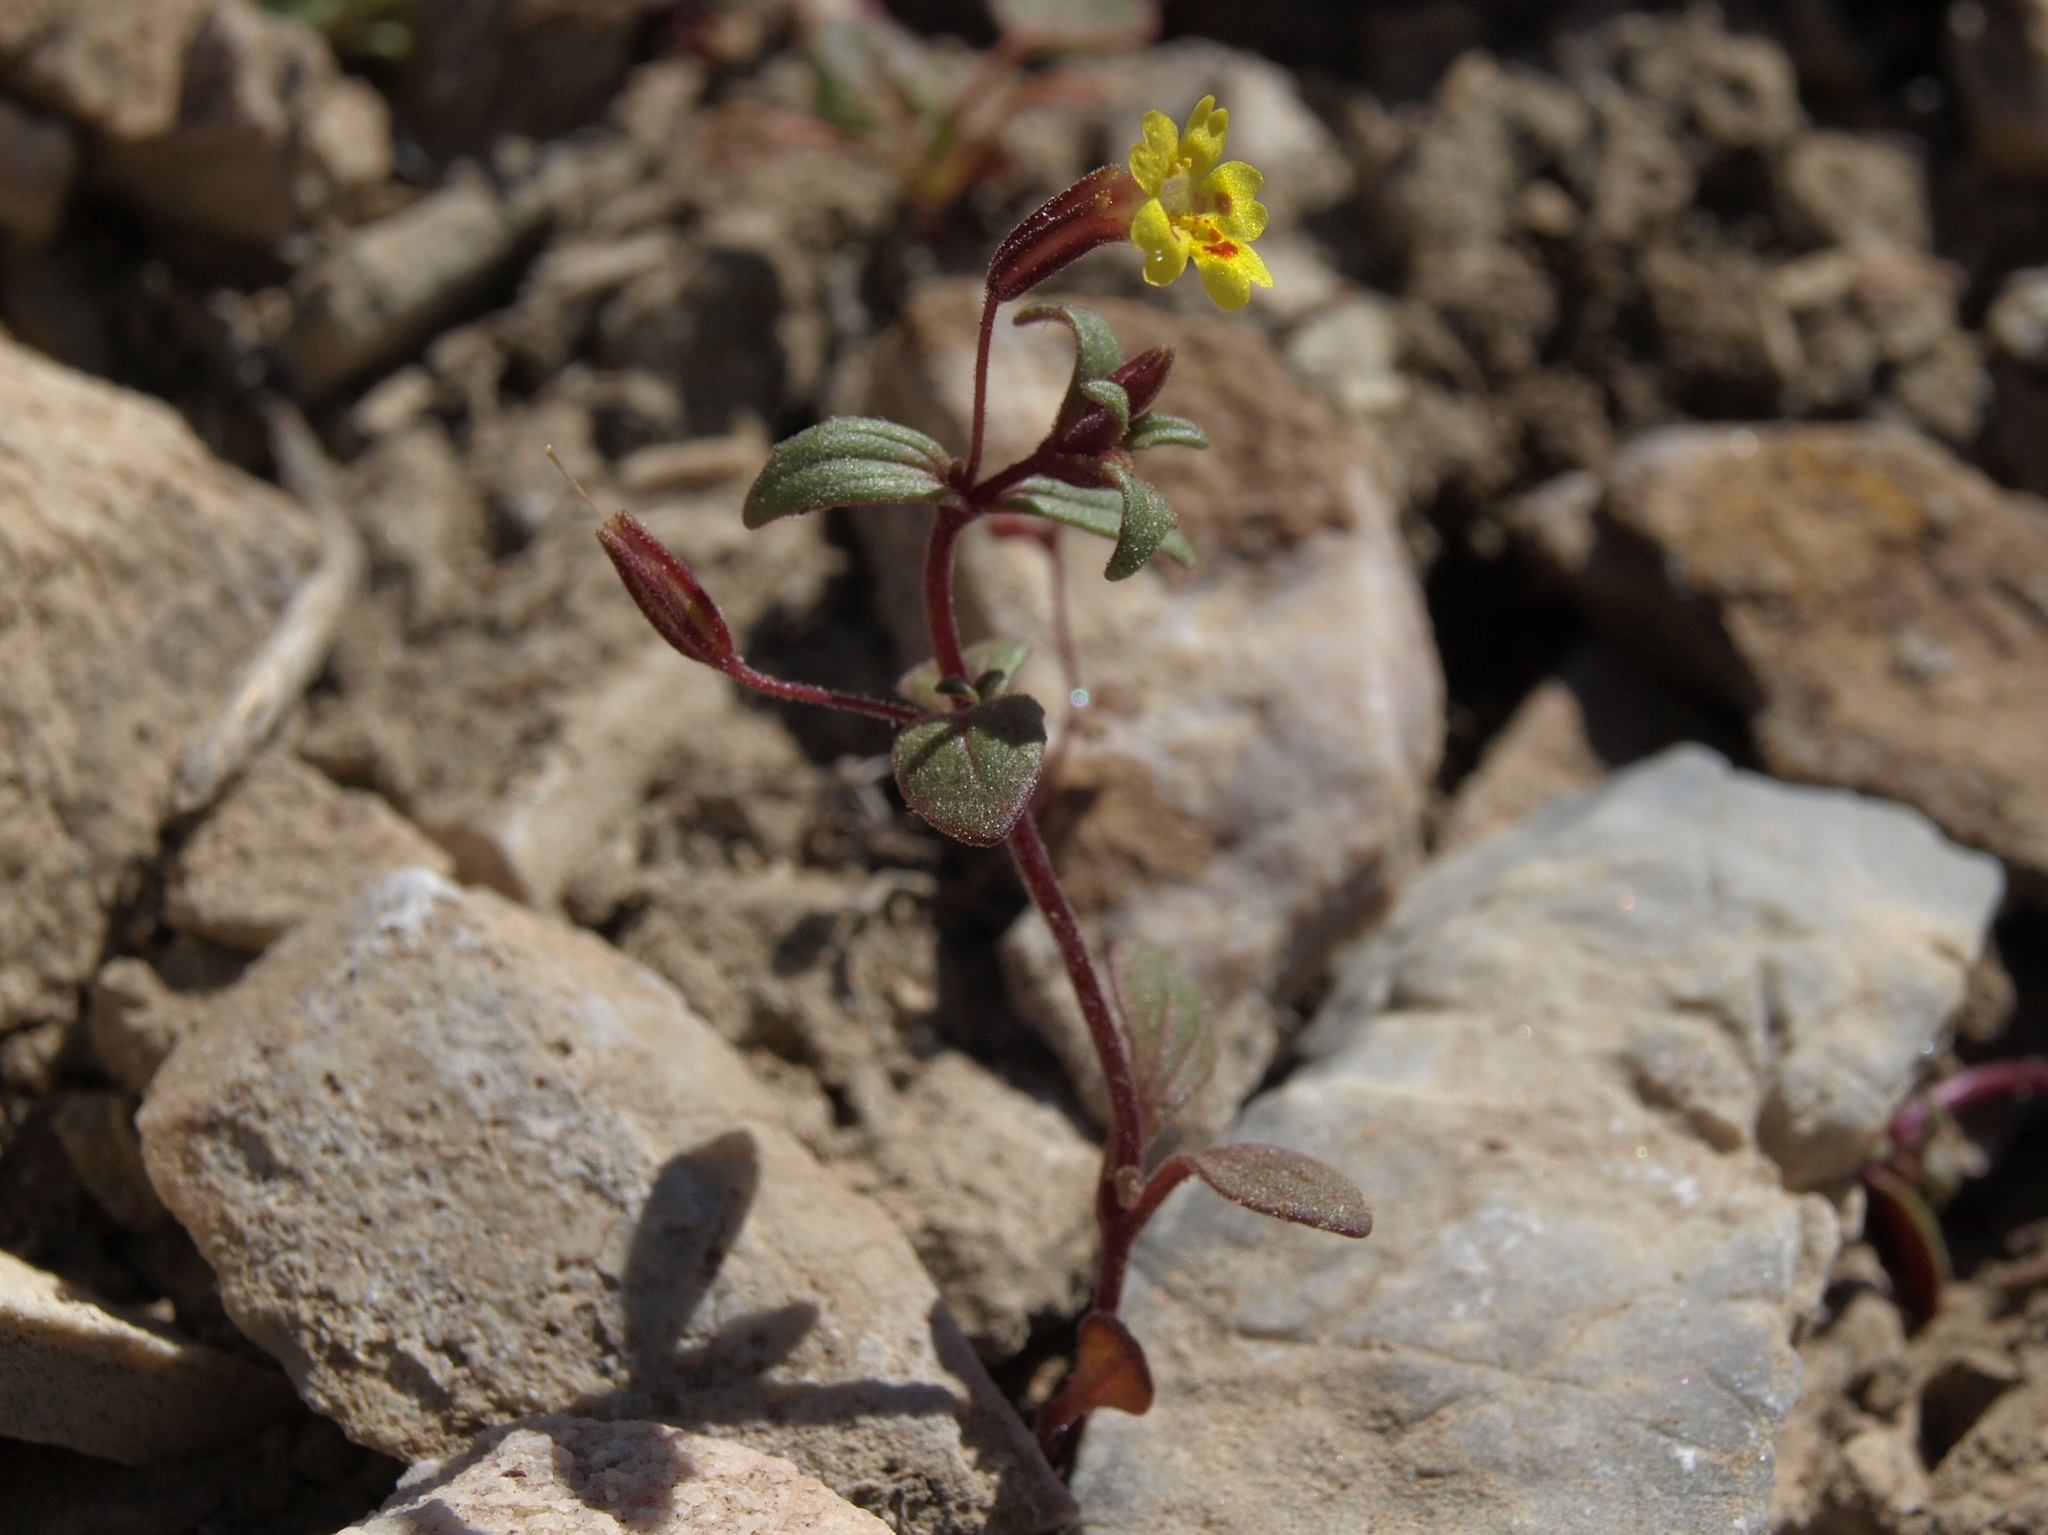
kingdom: Plantae
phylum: Tracheophyta
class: Magnoliopsida
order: Lamiales
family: Phrymaceae
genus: Erythranthe
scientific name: Erythranthe rubella
